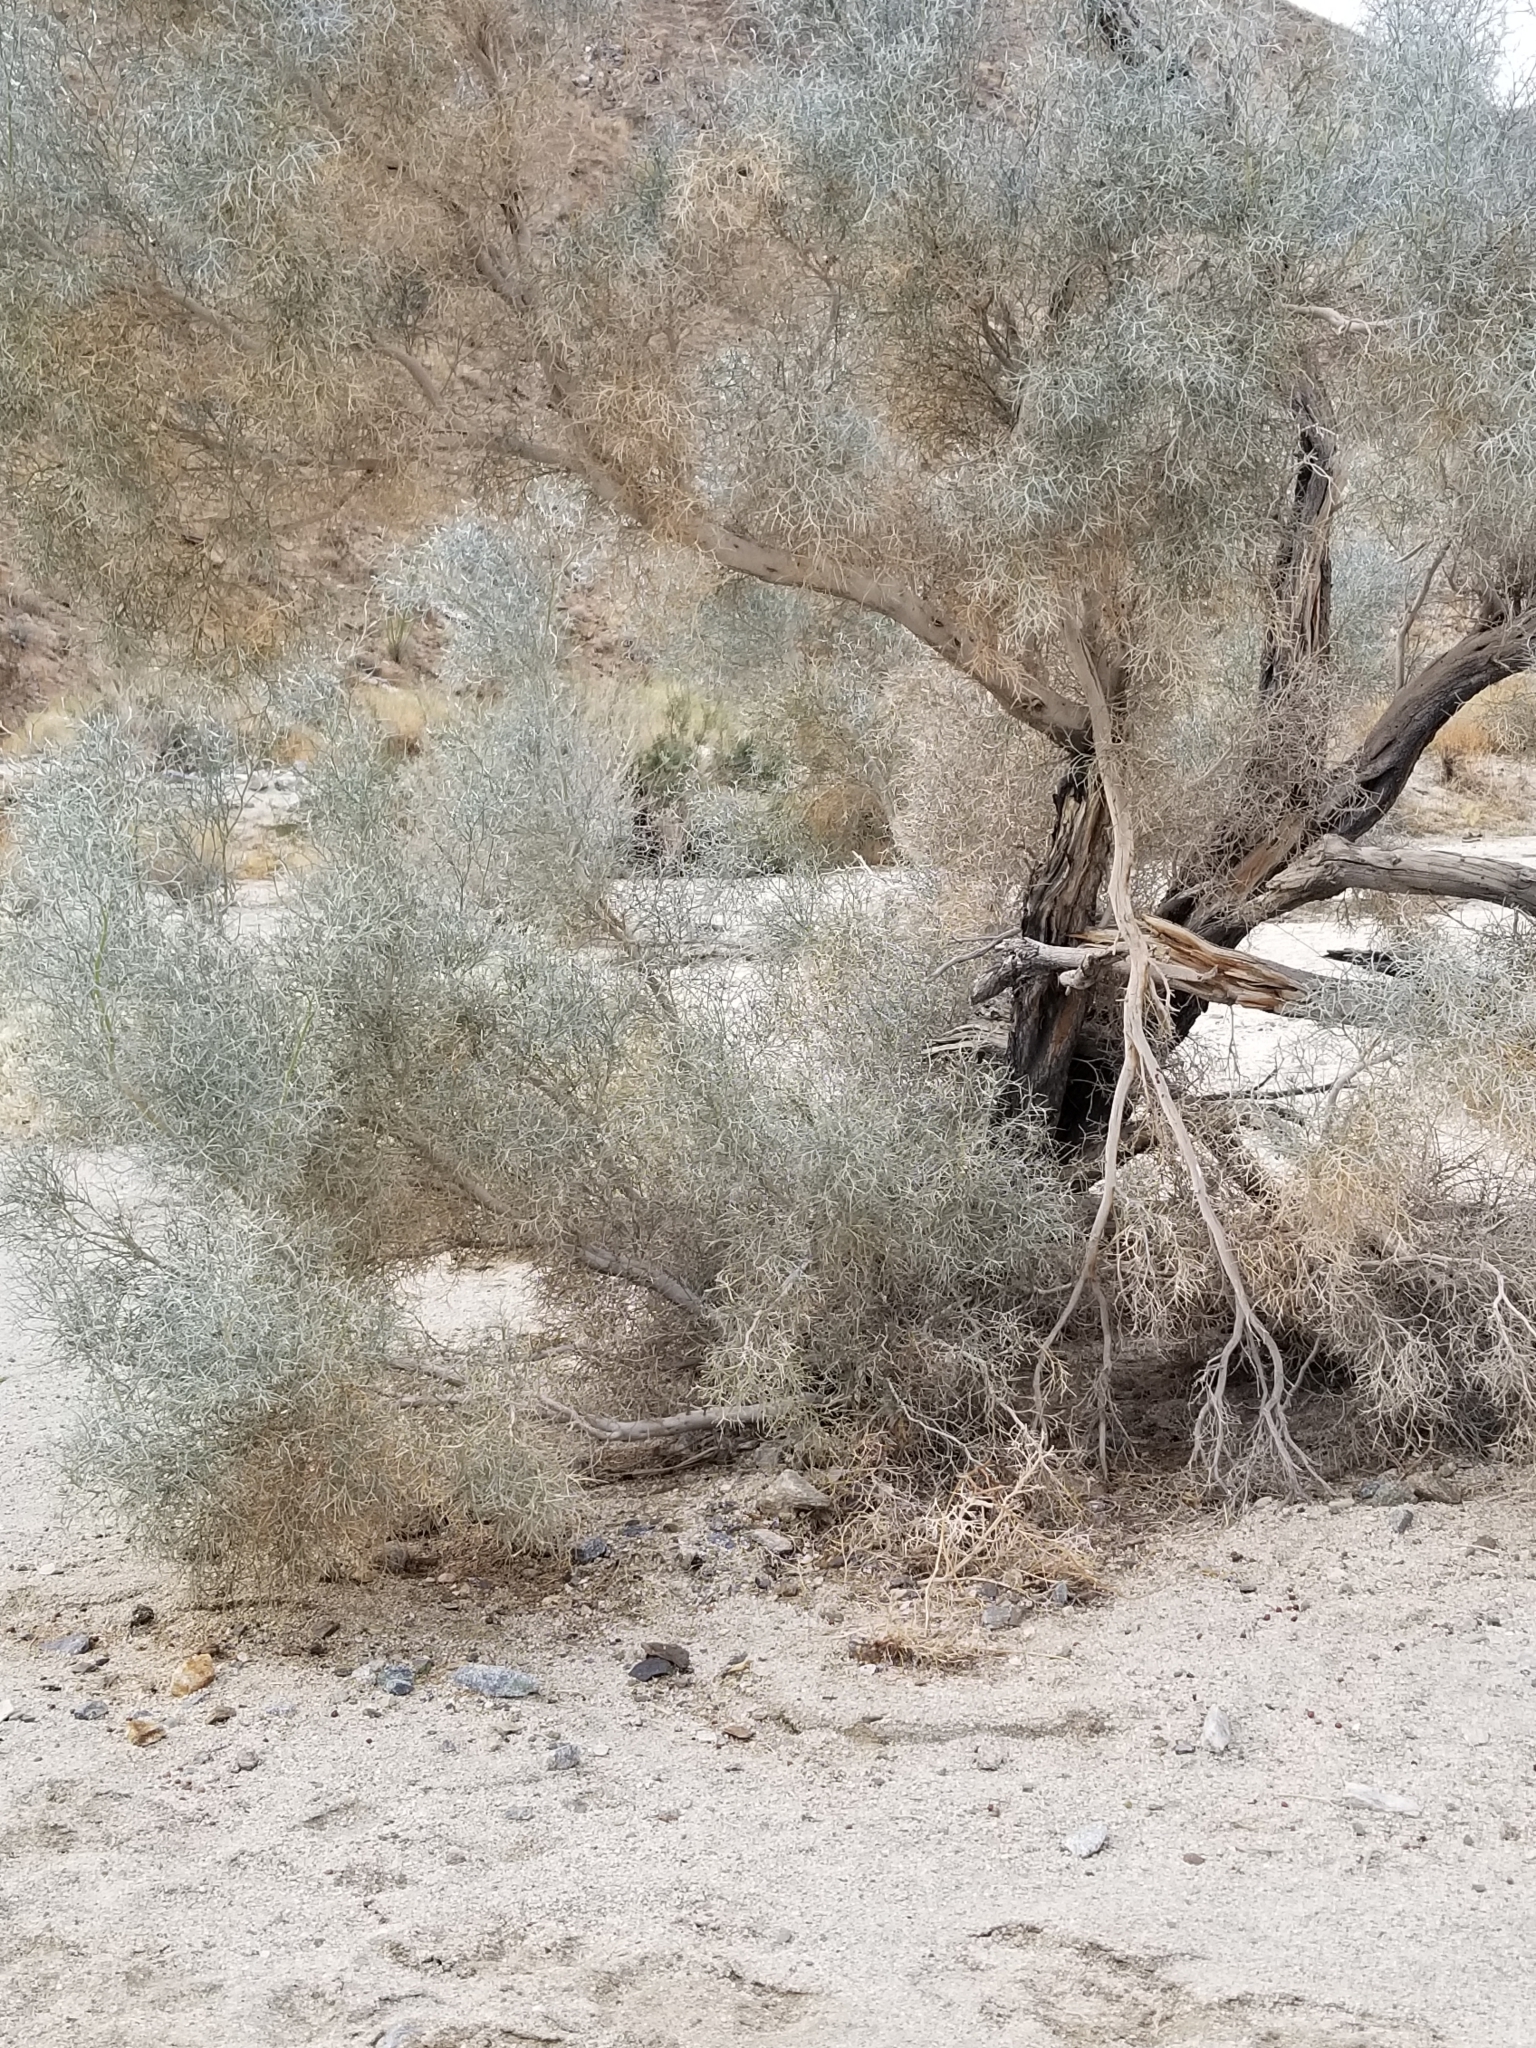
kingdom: Plantae
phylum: Tracheophyta
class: Magnoliopsida
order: Fabales
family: Fabaceae
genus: Psorothamnus
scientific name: Psorothamnus spinosus
